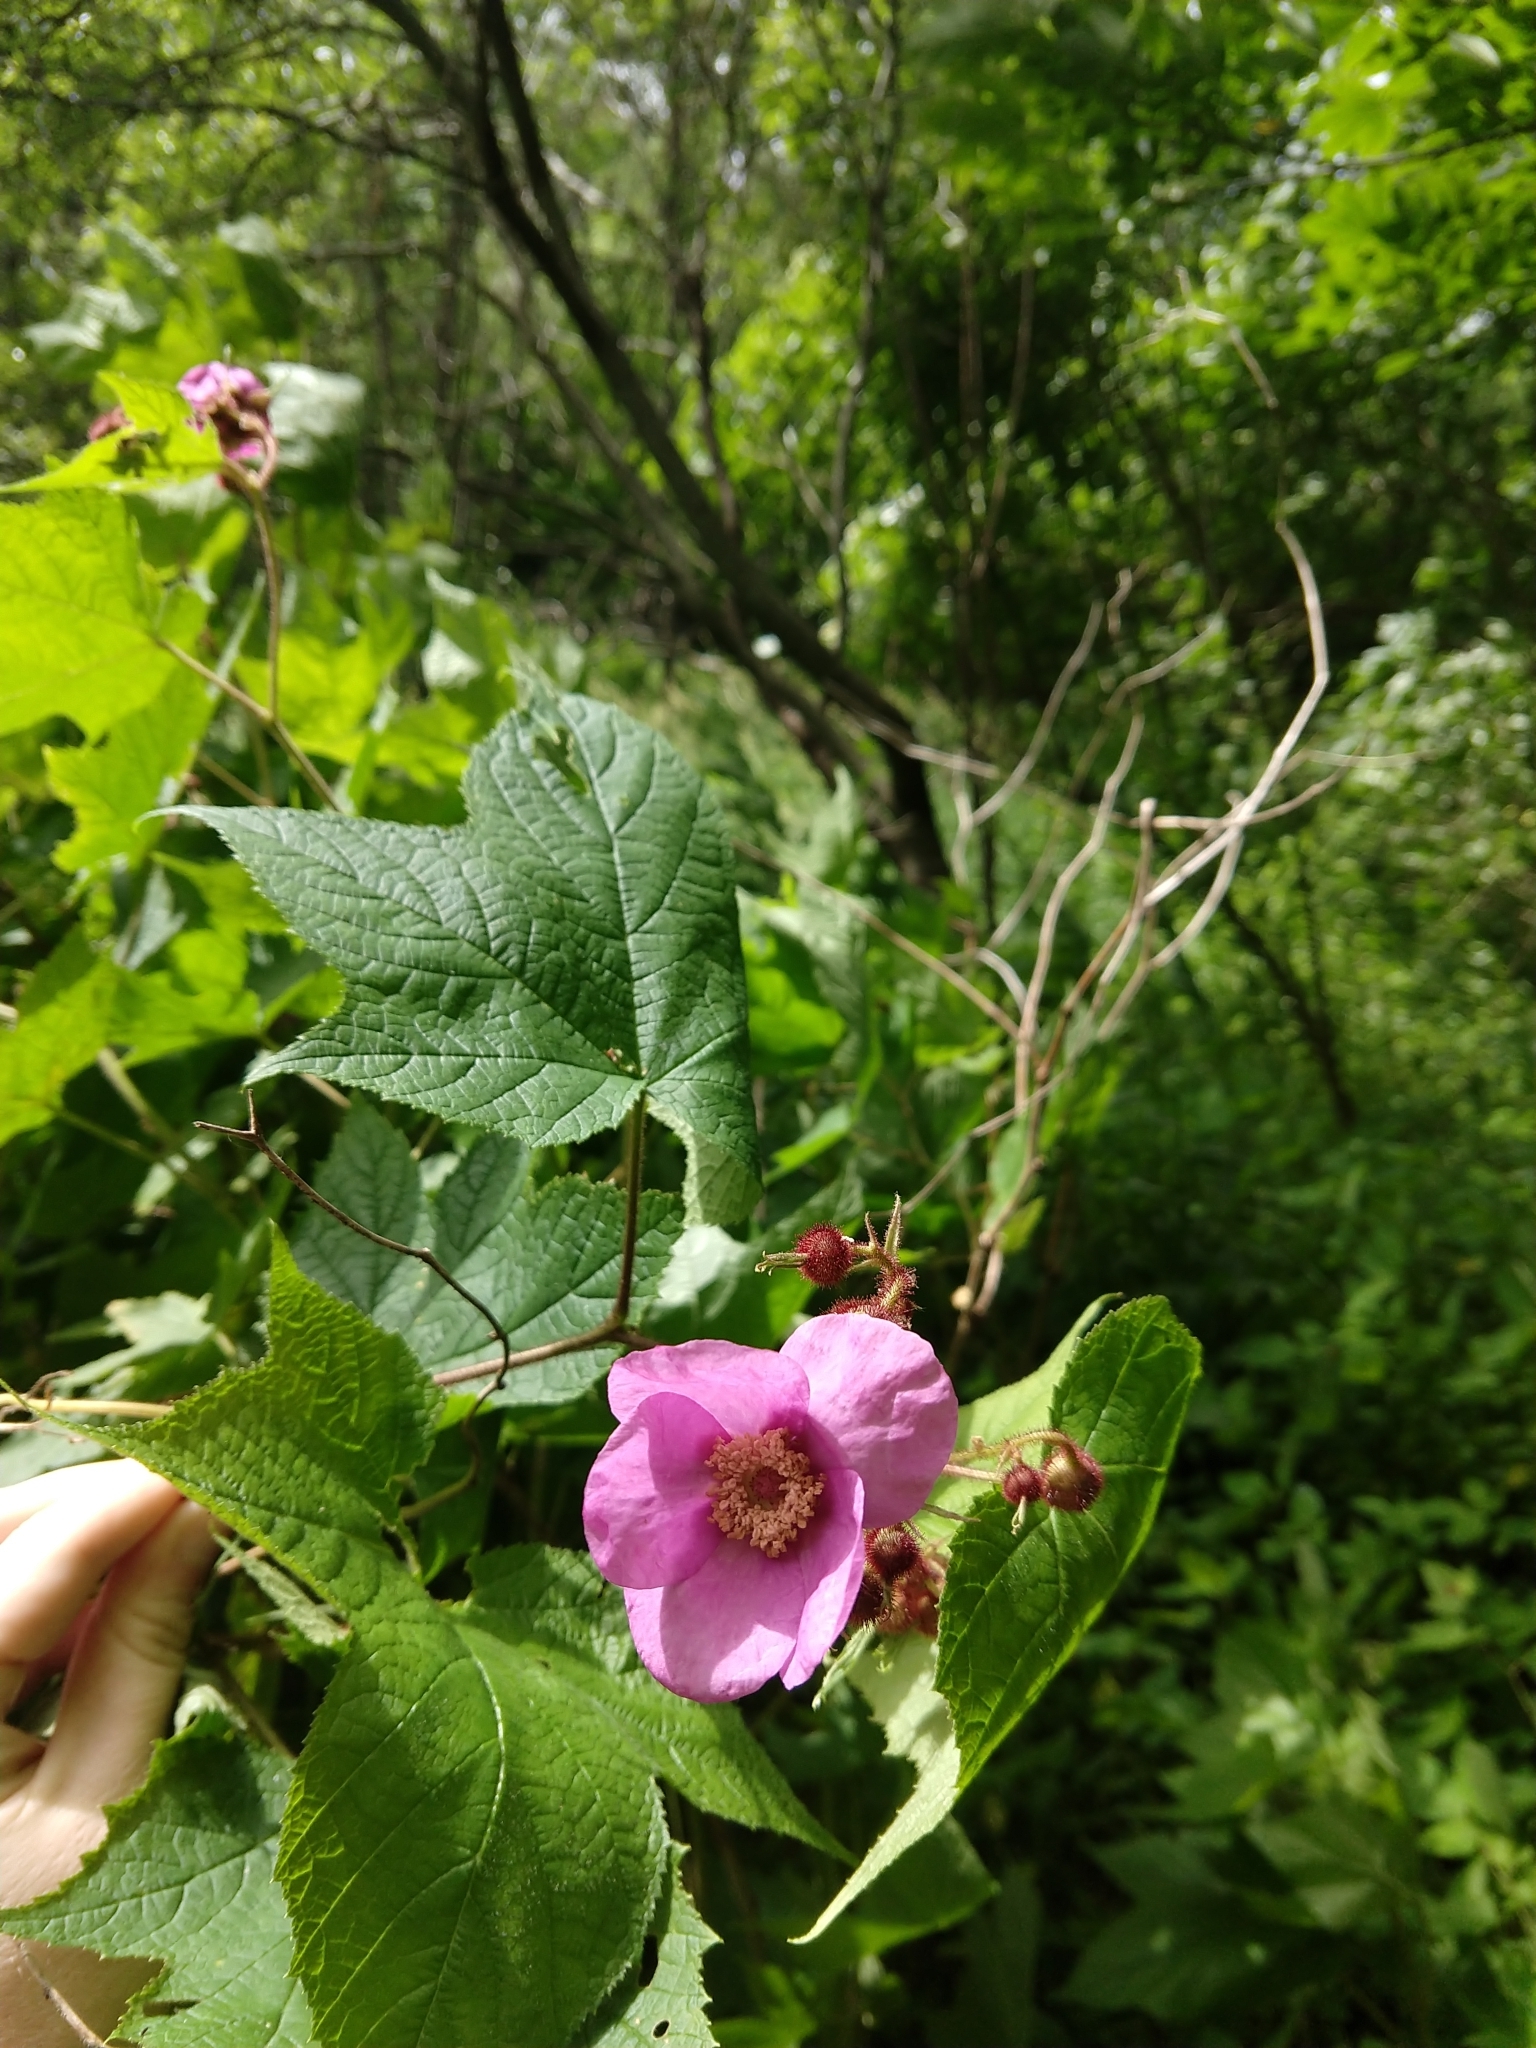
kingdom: Plantae
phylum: Tracheophyta
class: Magnoliopsida
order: Rosales
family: Rosaceae
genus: Rubus
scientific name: Rubus odoratus
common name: Purple-flowered raspberry
